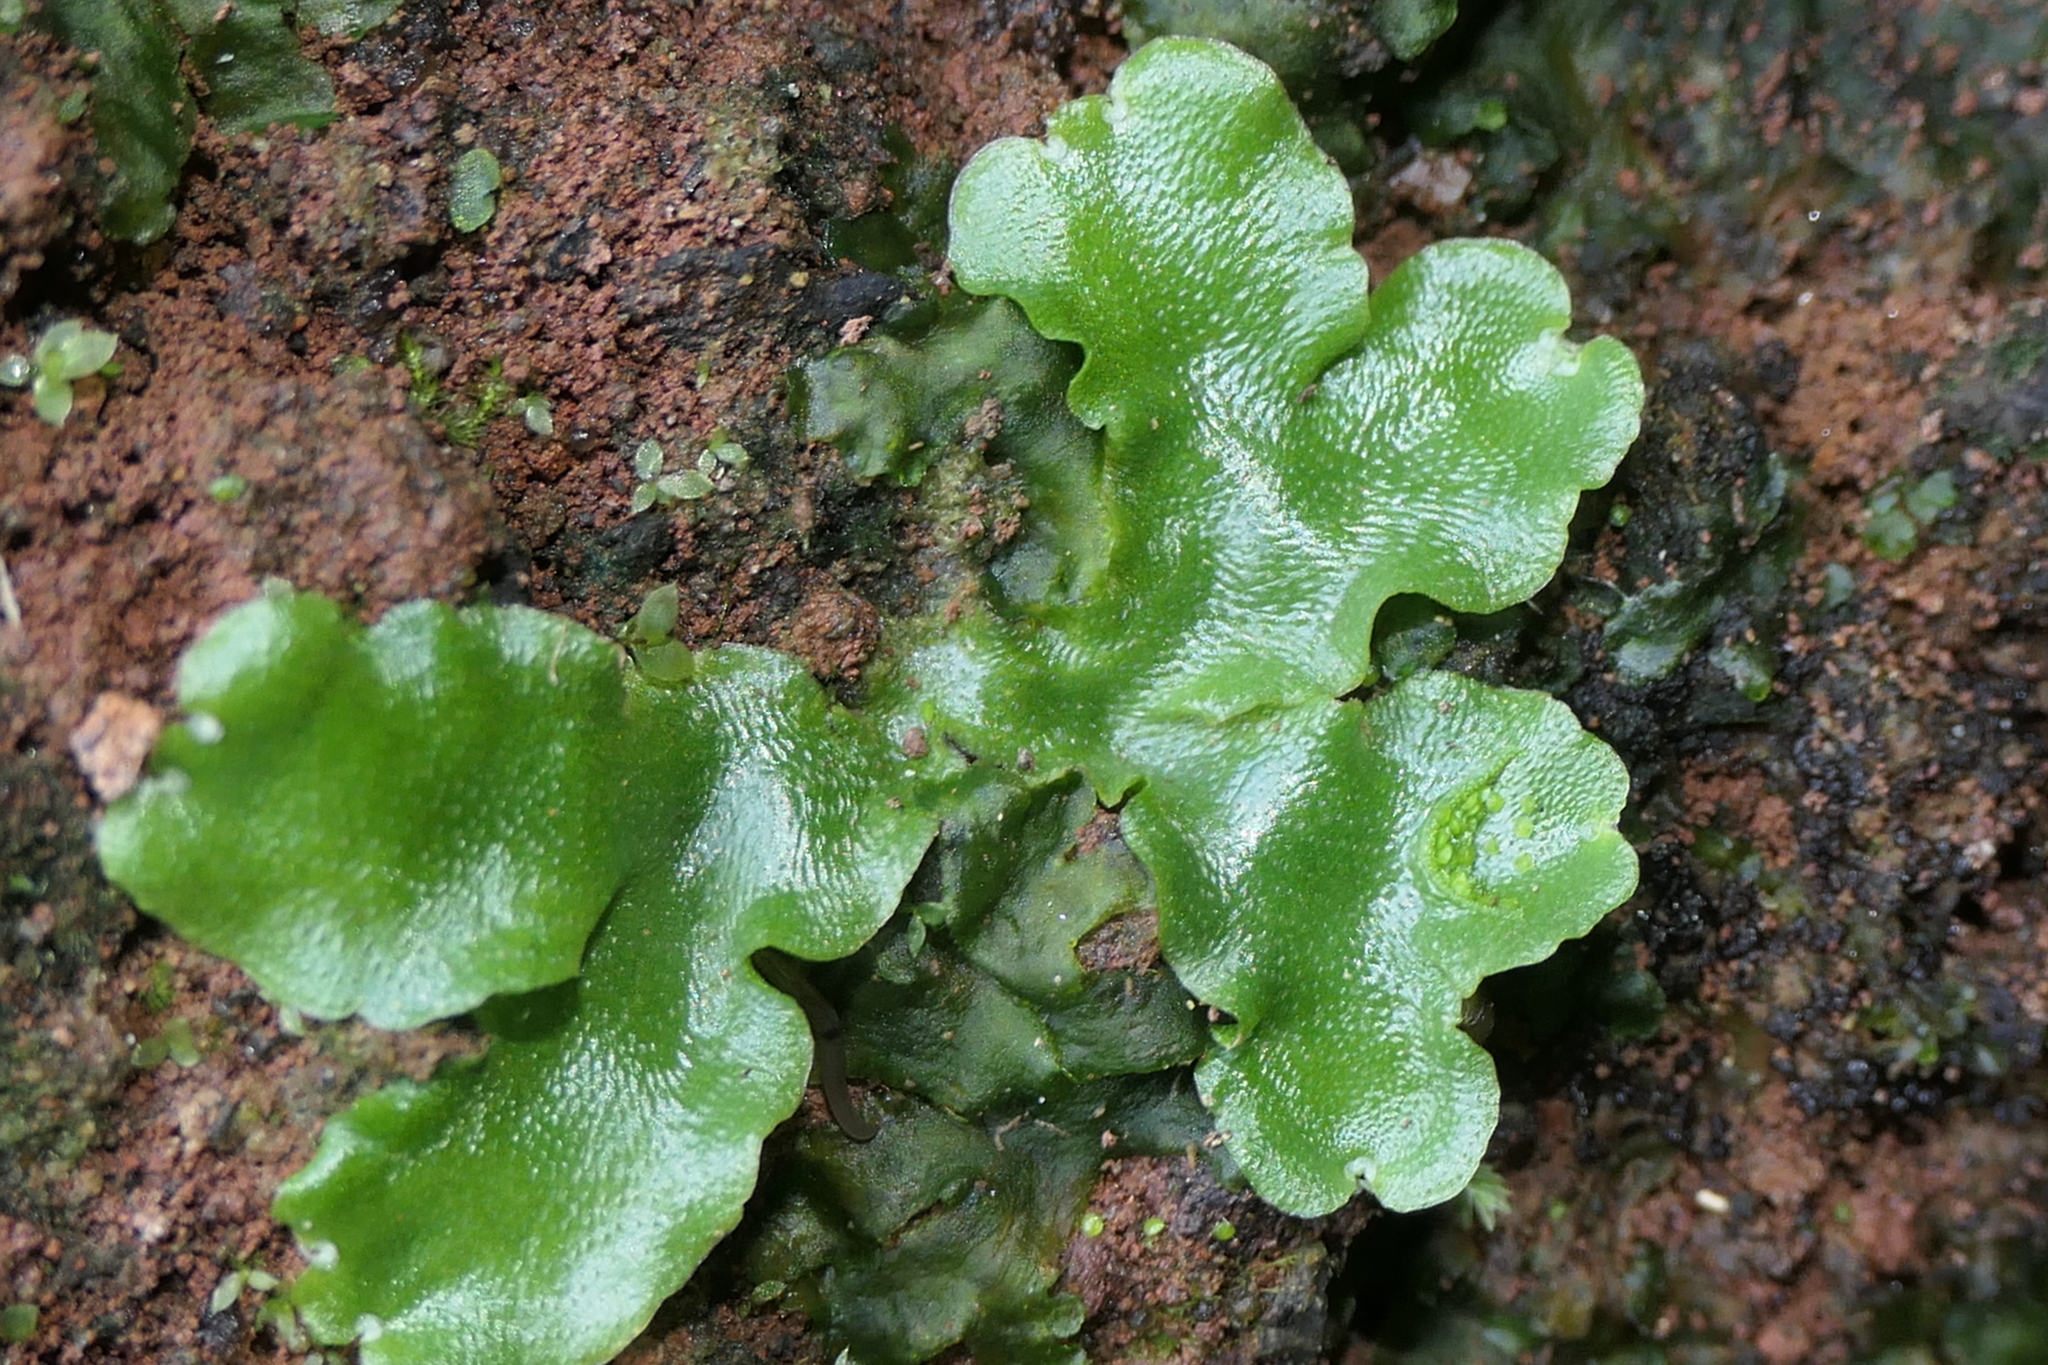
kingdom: Plantae
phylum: Marchantiophyta
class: Marchantiopsida
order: Lunulariales
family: Lunulariaceae
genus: Lunularia
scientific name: Lunularia cruciata
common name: Crescent-cup liverwort
